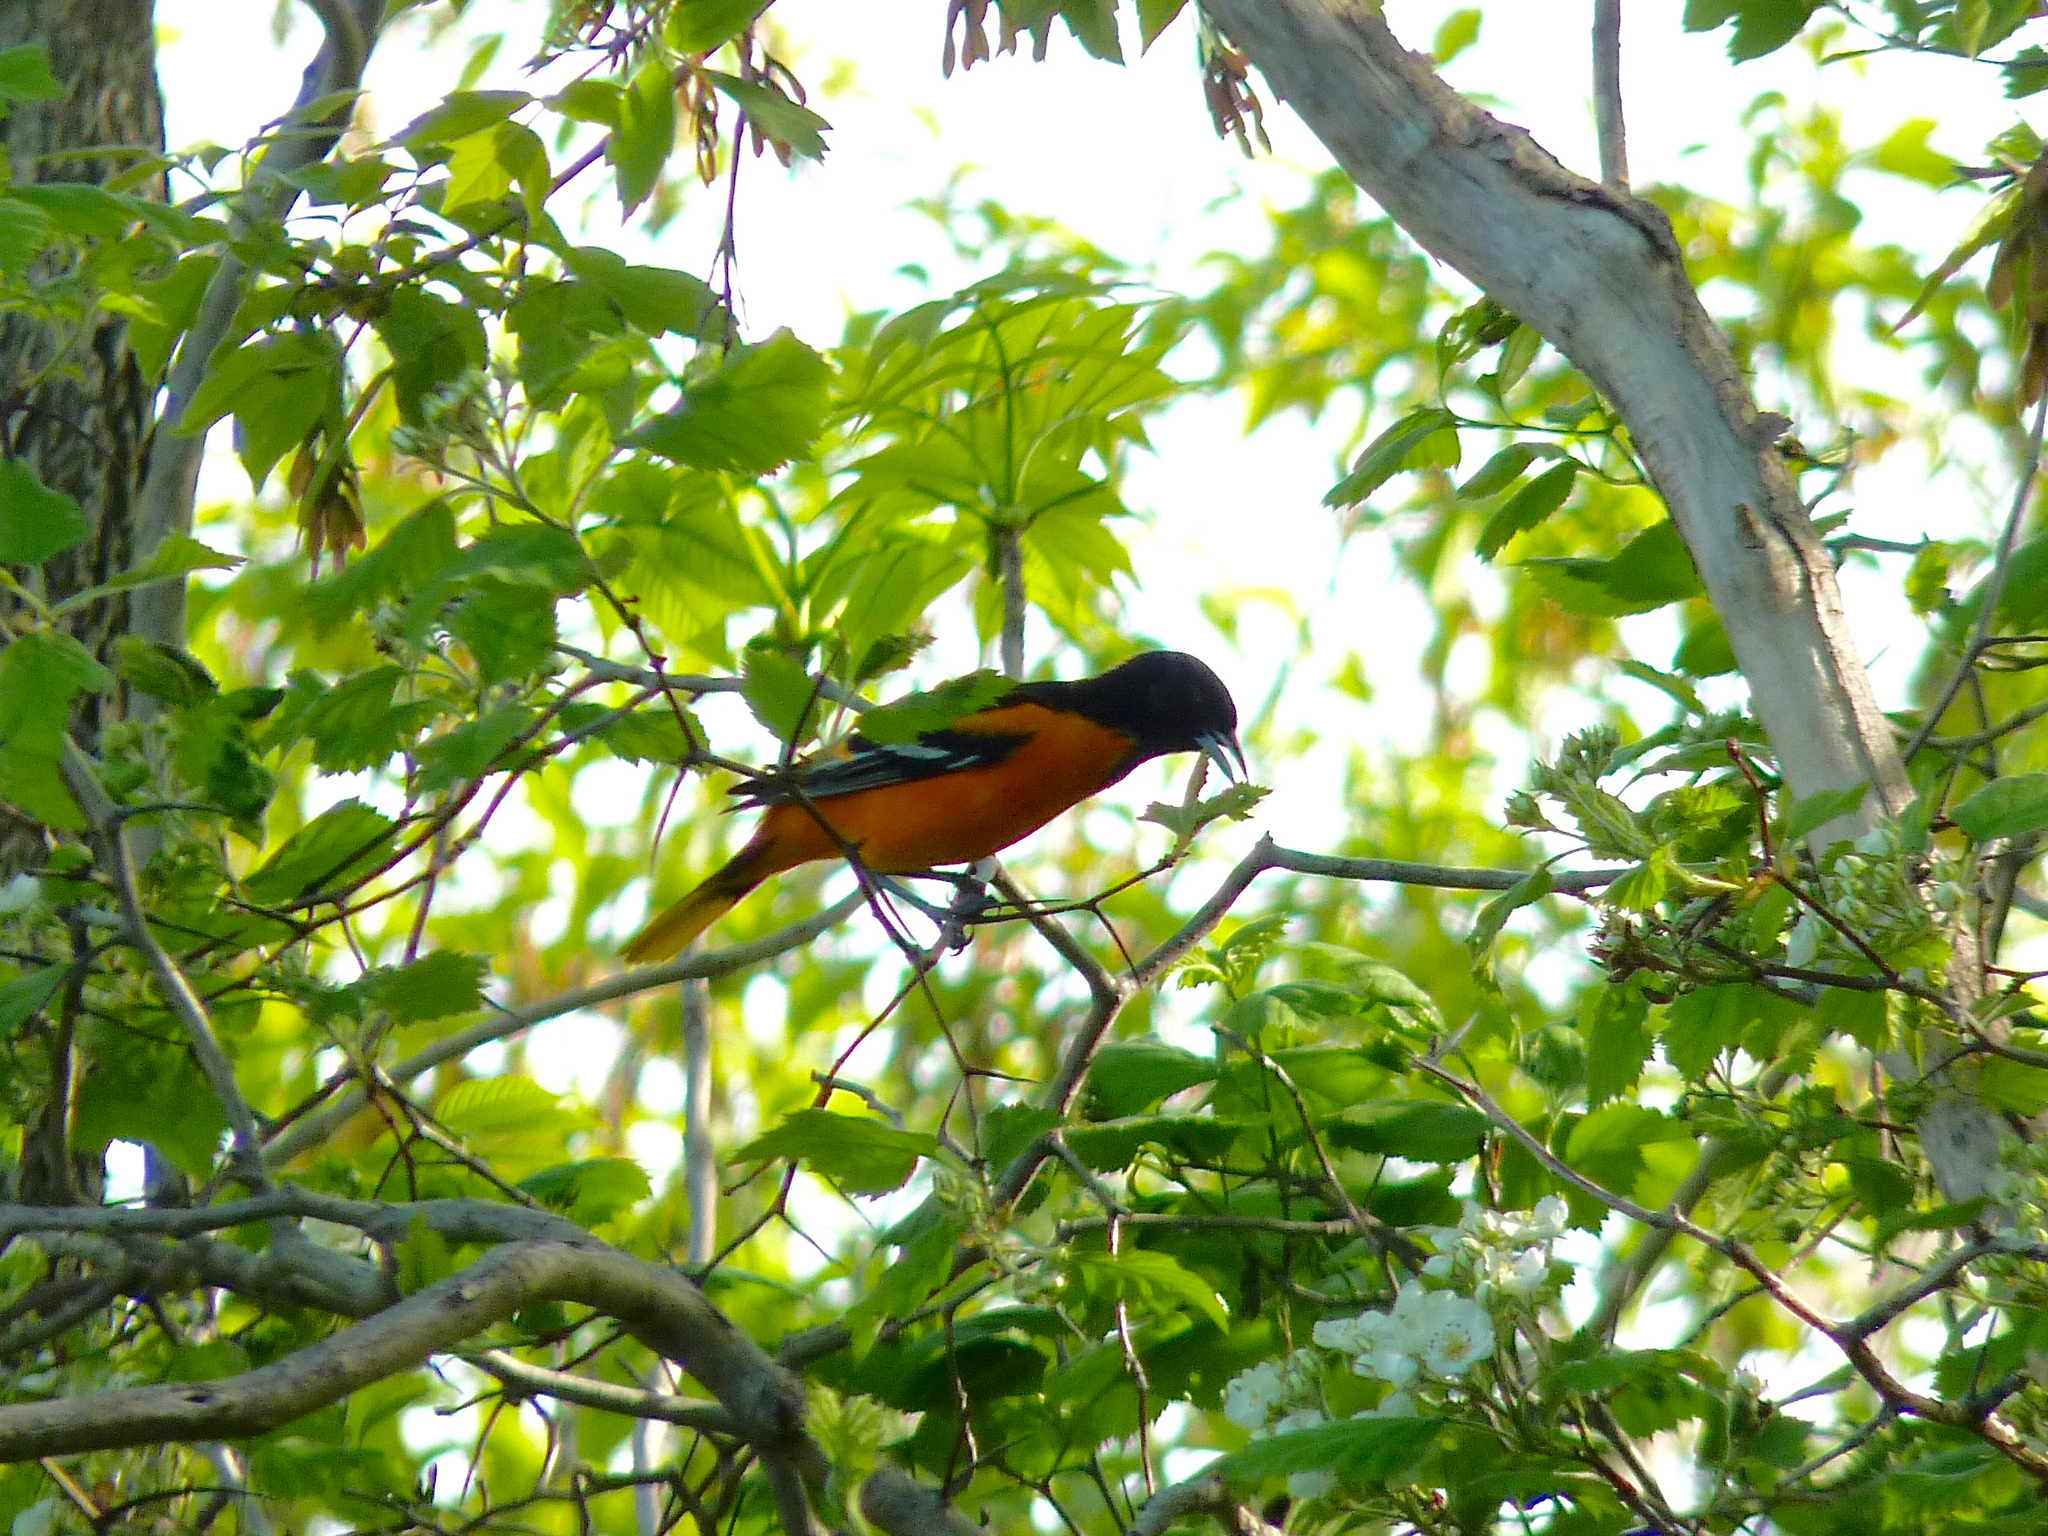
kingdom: Animalia
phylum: Chordata
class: Aves
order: Passeriformes
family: Icteridae
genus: Icterus
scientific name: Icterus galbula
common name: Baltimore oriole
